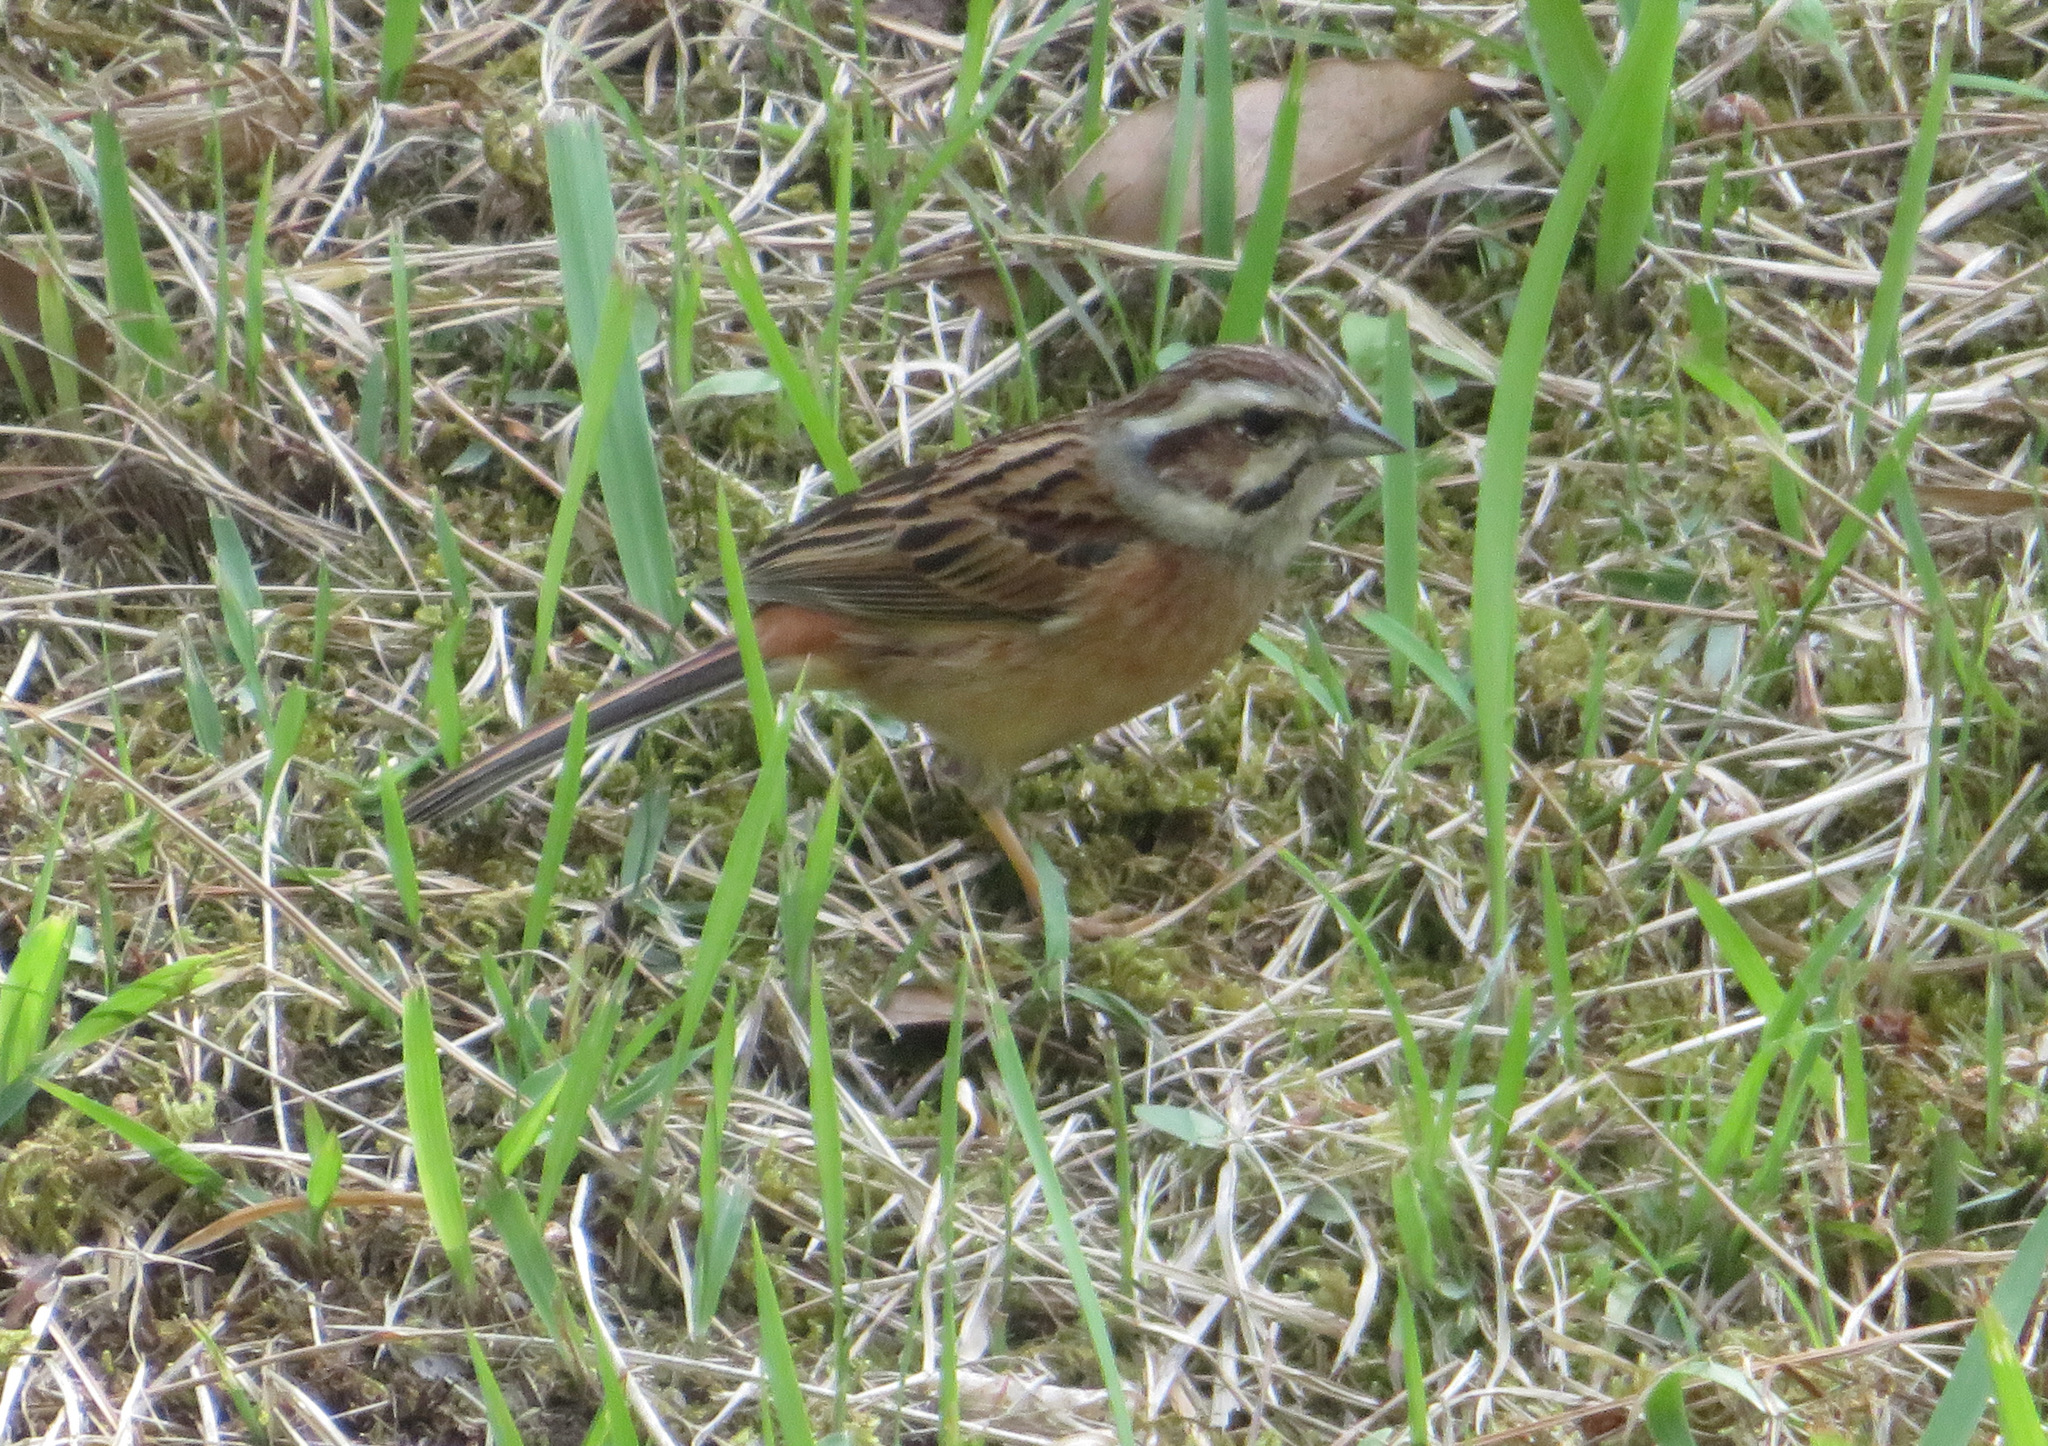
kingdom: Animalia
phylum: Chordata
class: Aves
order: Passeriformes
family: Emberizidae
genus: Emberiza
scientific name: Emberiza cioides
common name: Meadow bunting
